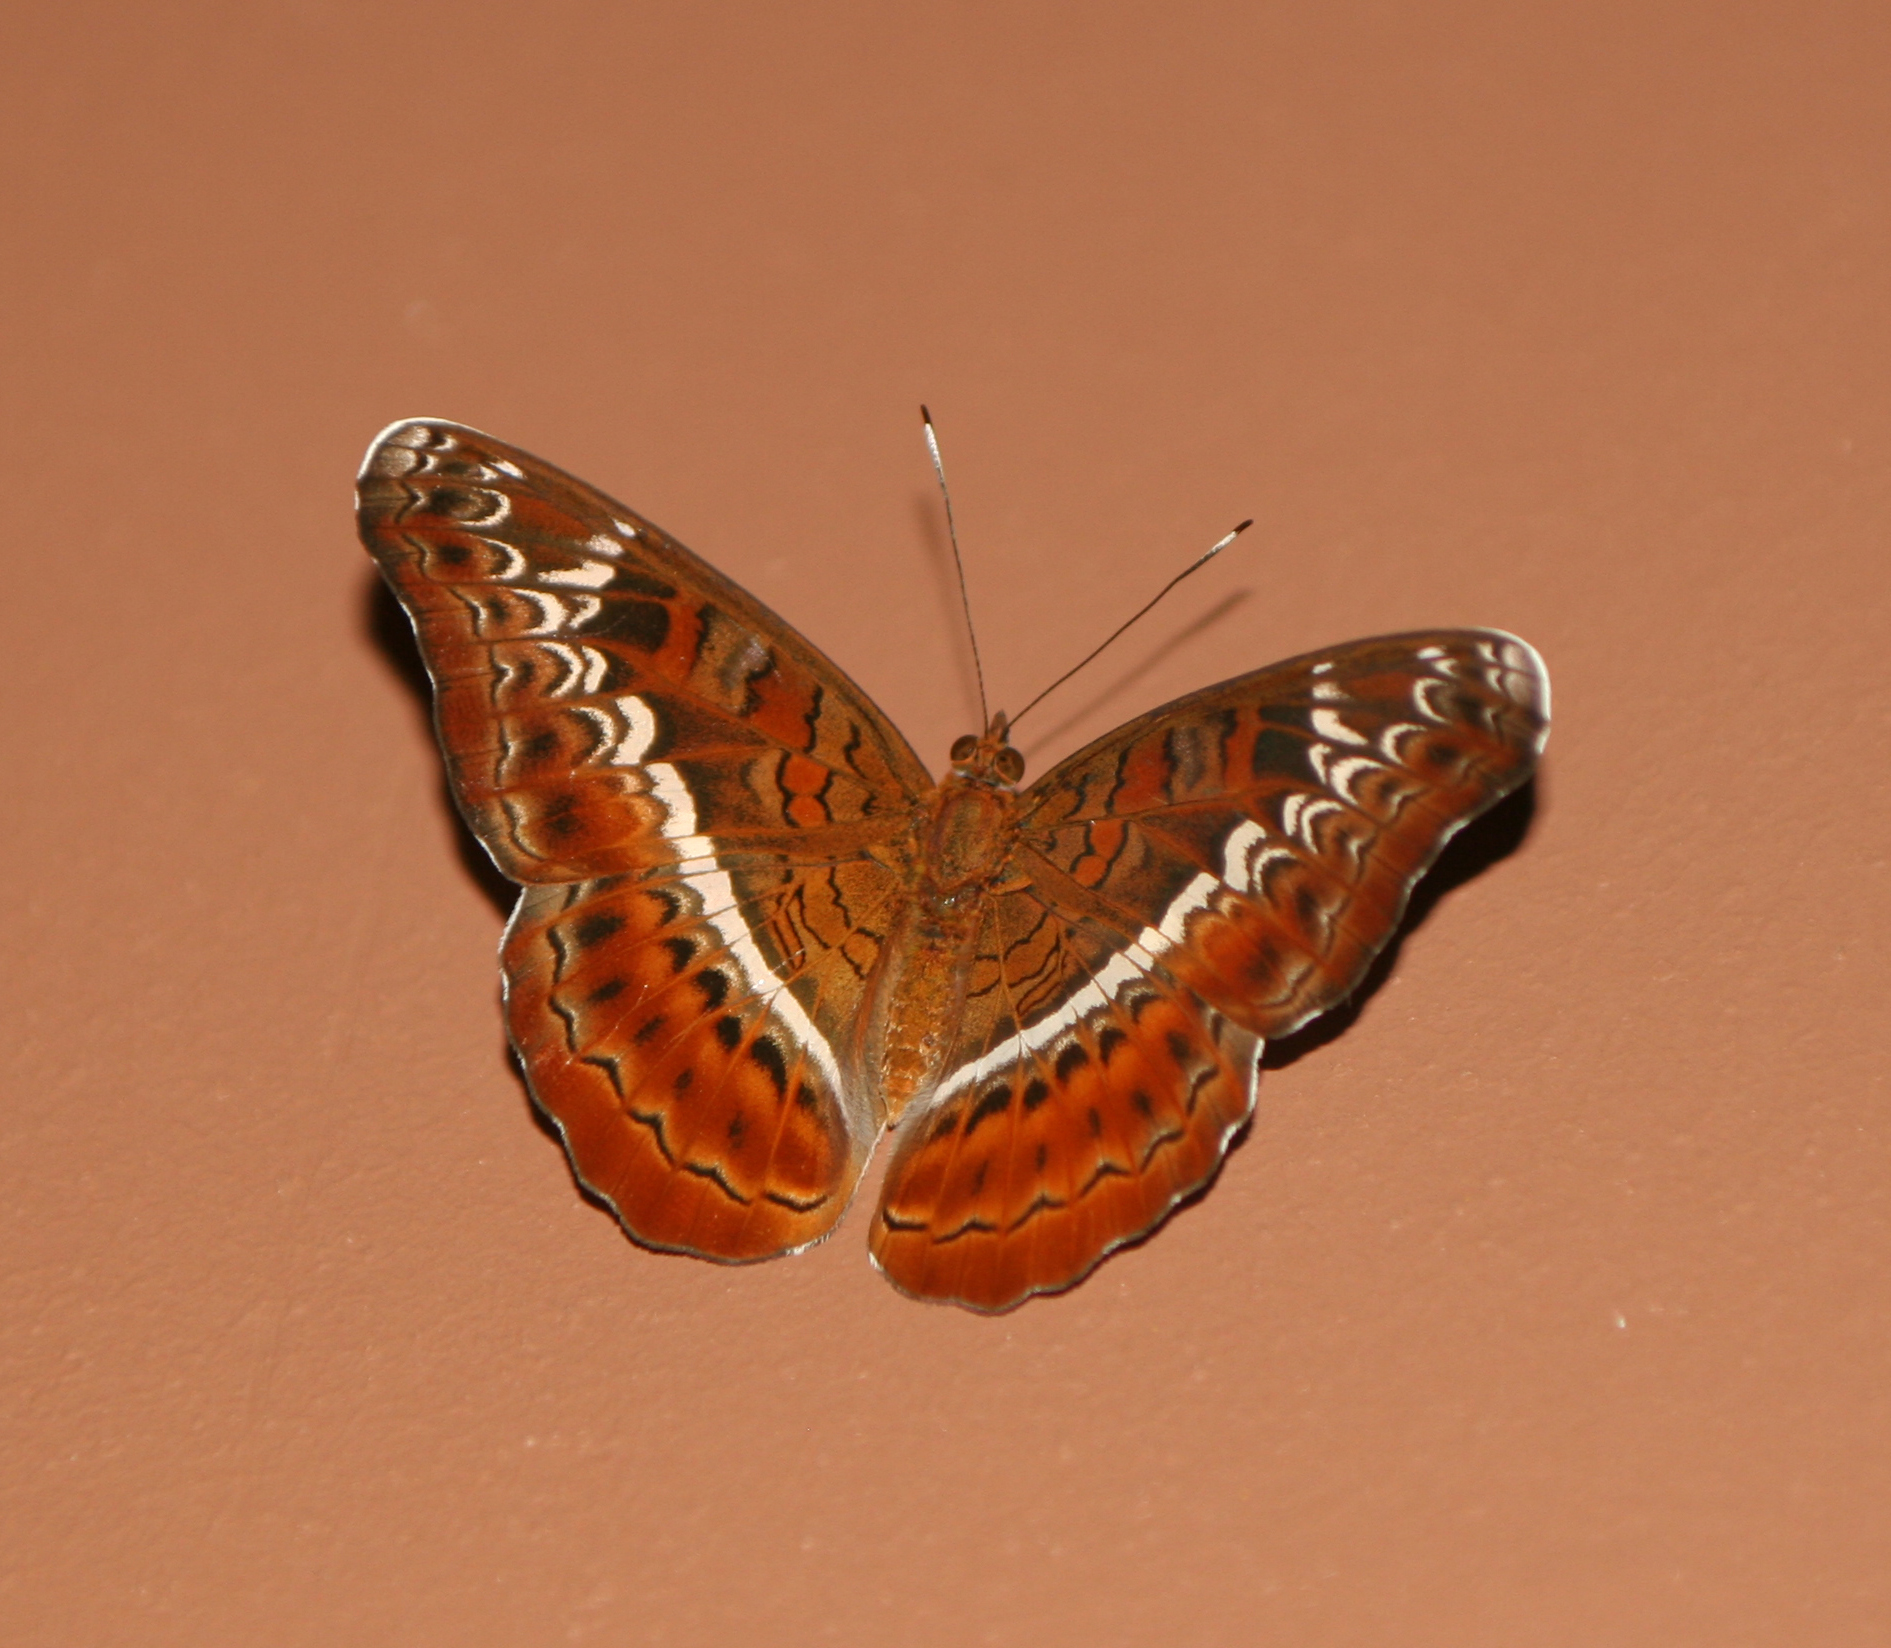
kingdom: Animalia
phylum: Arthropoda
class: Insecta
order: Lepidoptera
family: Nymphalidae
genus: Lebadea
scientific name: Lebadea martha
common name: Knight
